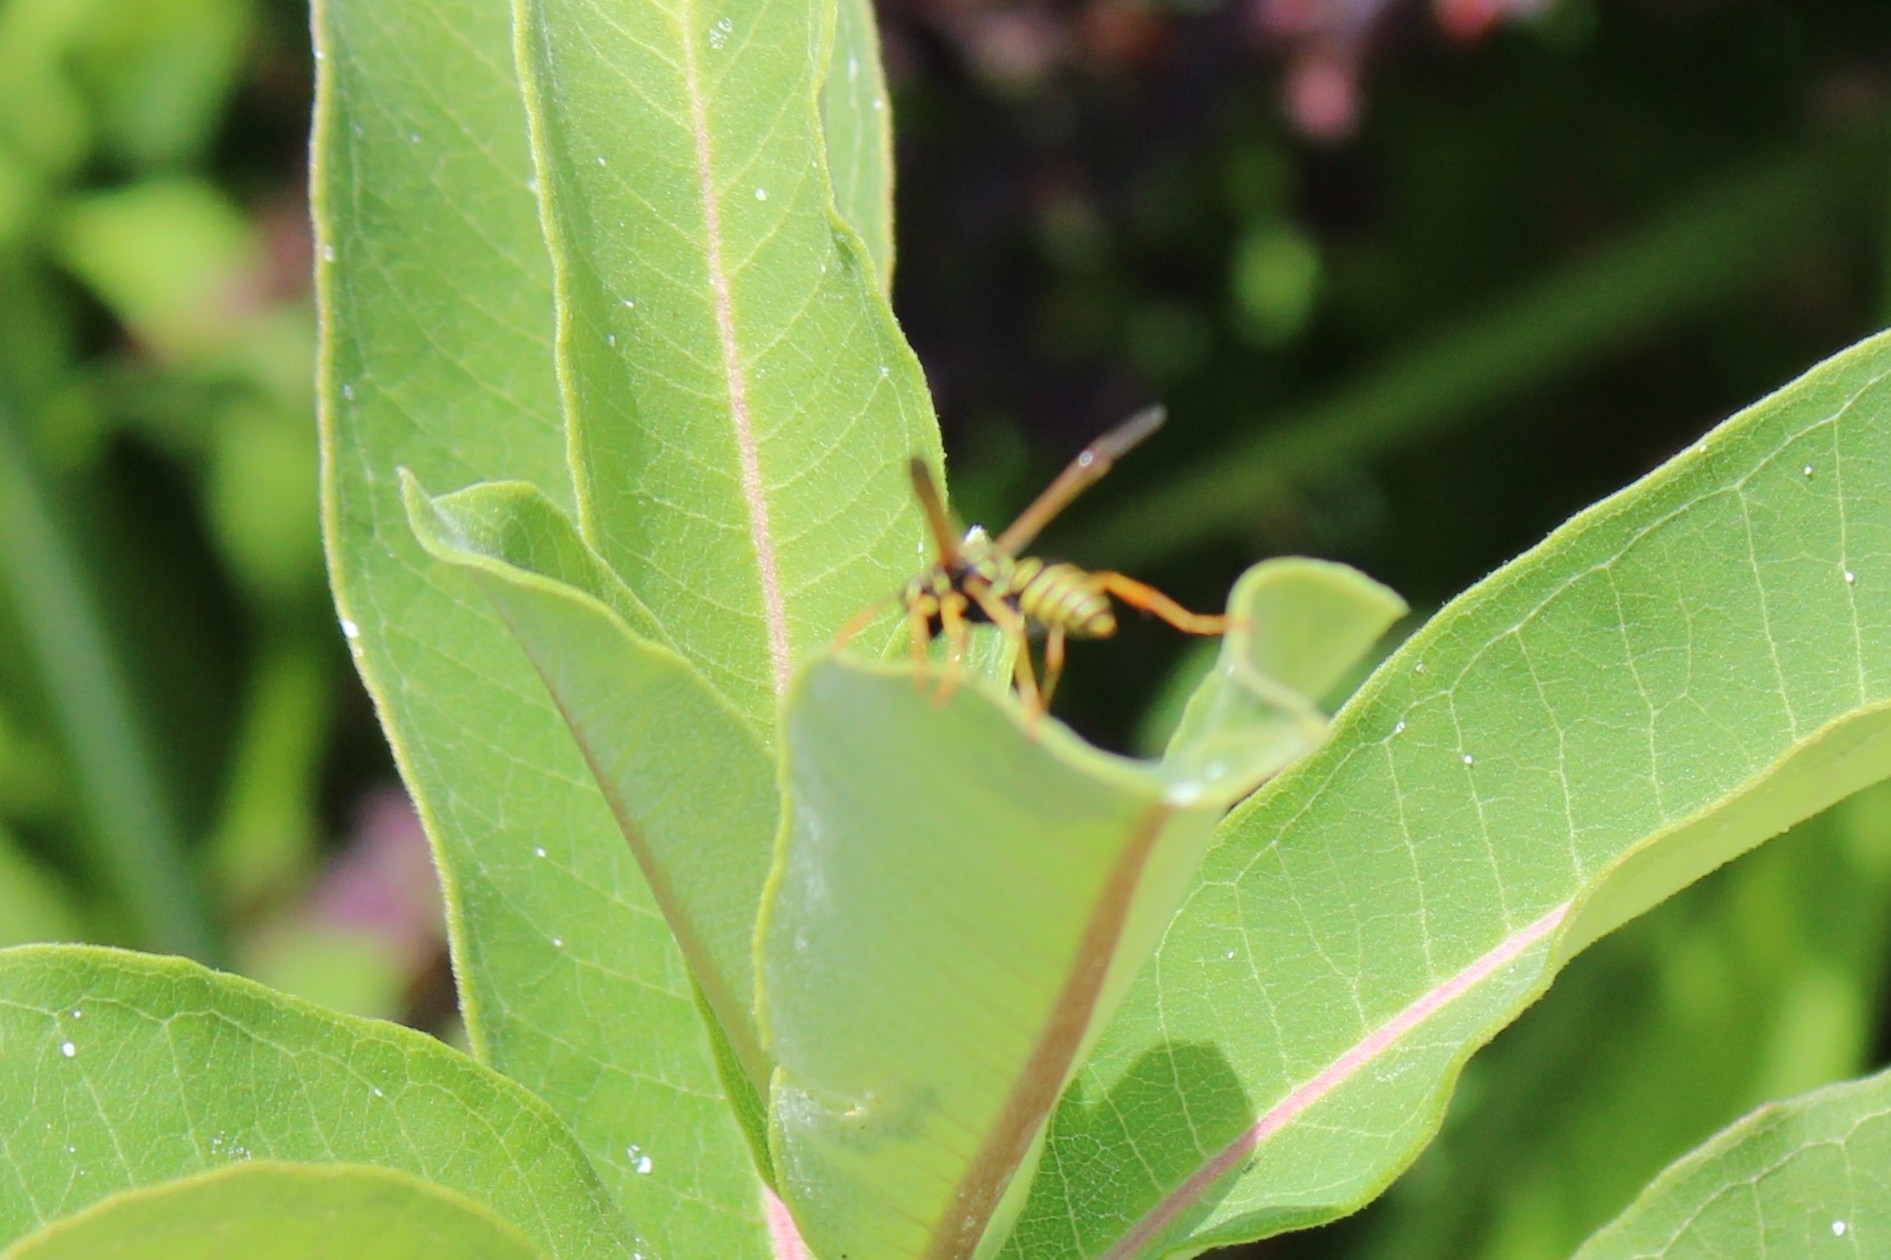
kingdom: Animalia
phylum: Arthropoda
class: Insecta
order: Hymenoptera
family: Eumenidae
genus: Polistes
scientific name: Polistes dominula
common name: Paper wasp
